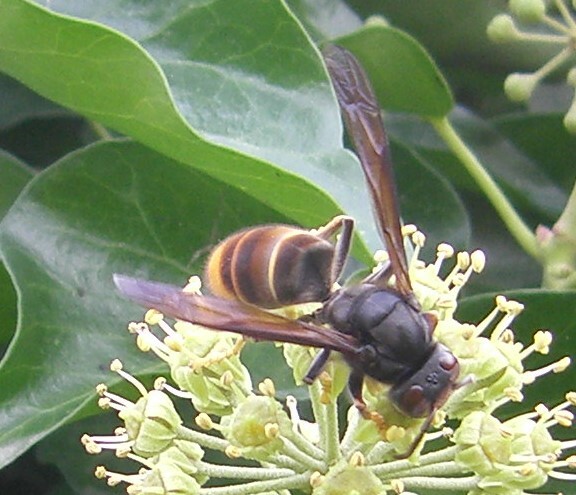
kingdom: Animalia
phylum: Arthropoda
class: Insecta
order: Hymenoptera
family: Vespidae
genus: Vespa
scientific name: Vespa velutina
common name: Asian hornet
